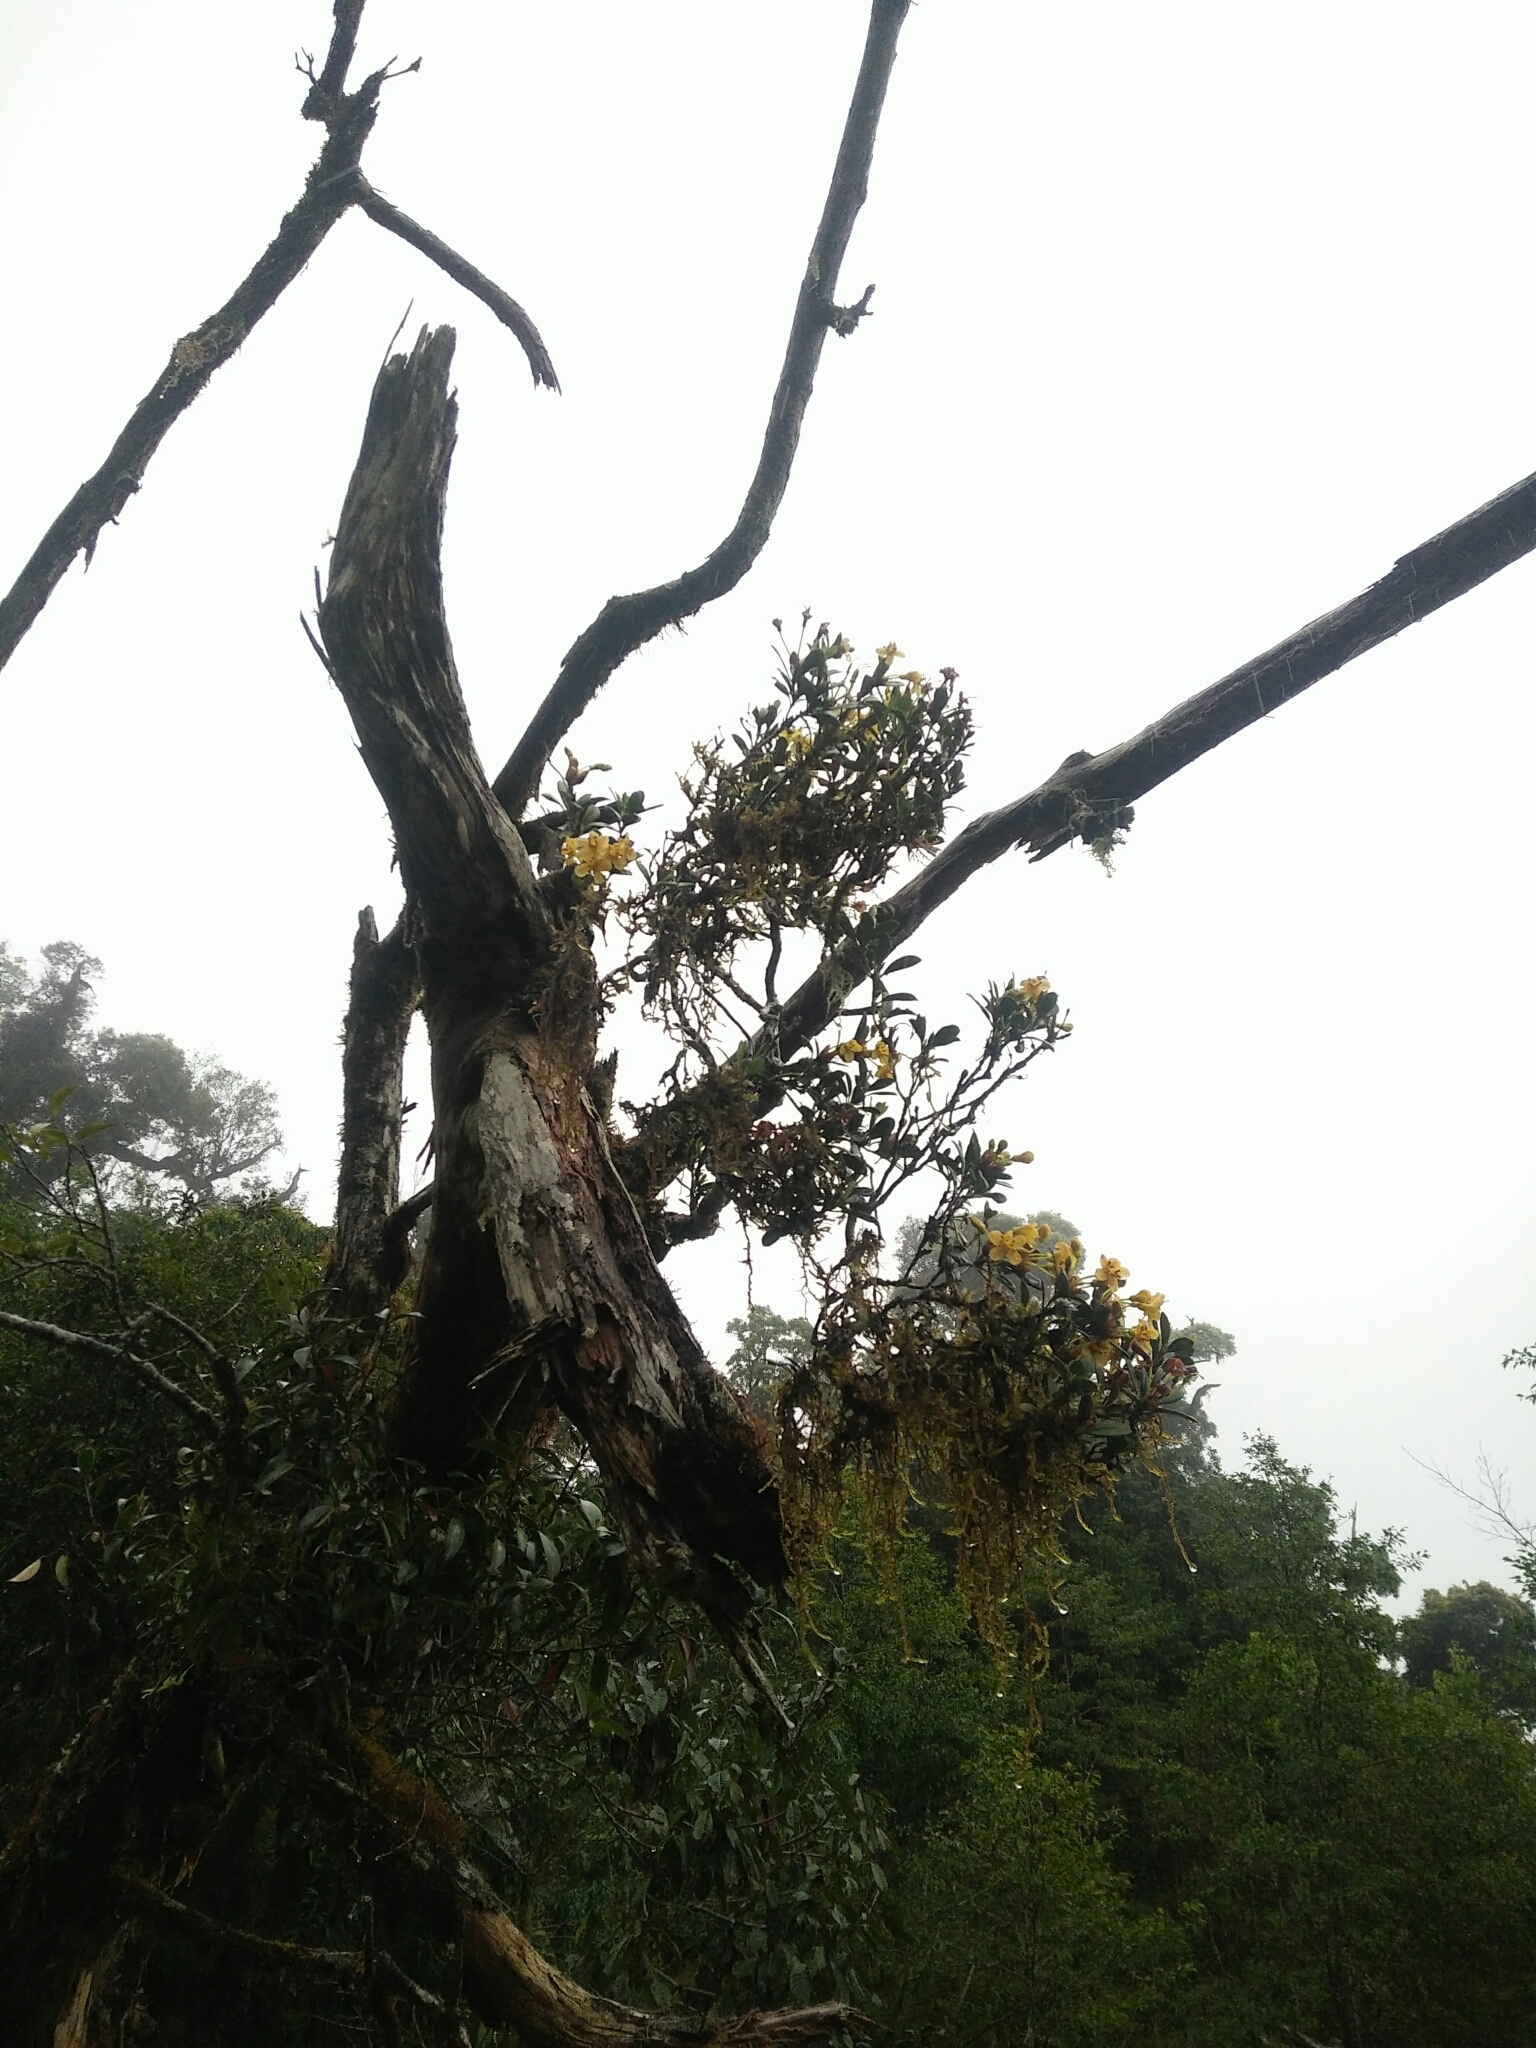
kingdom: Plantae
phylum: Tracheophyta
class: Magnoliopsida
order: Ericales
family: Ericaceae
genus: Rhododendron
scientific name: Rhododendron kawakamii
